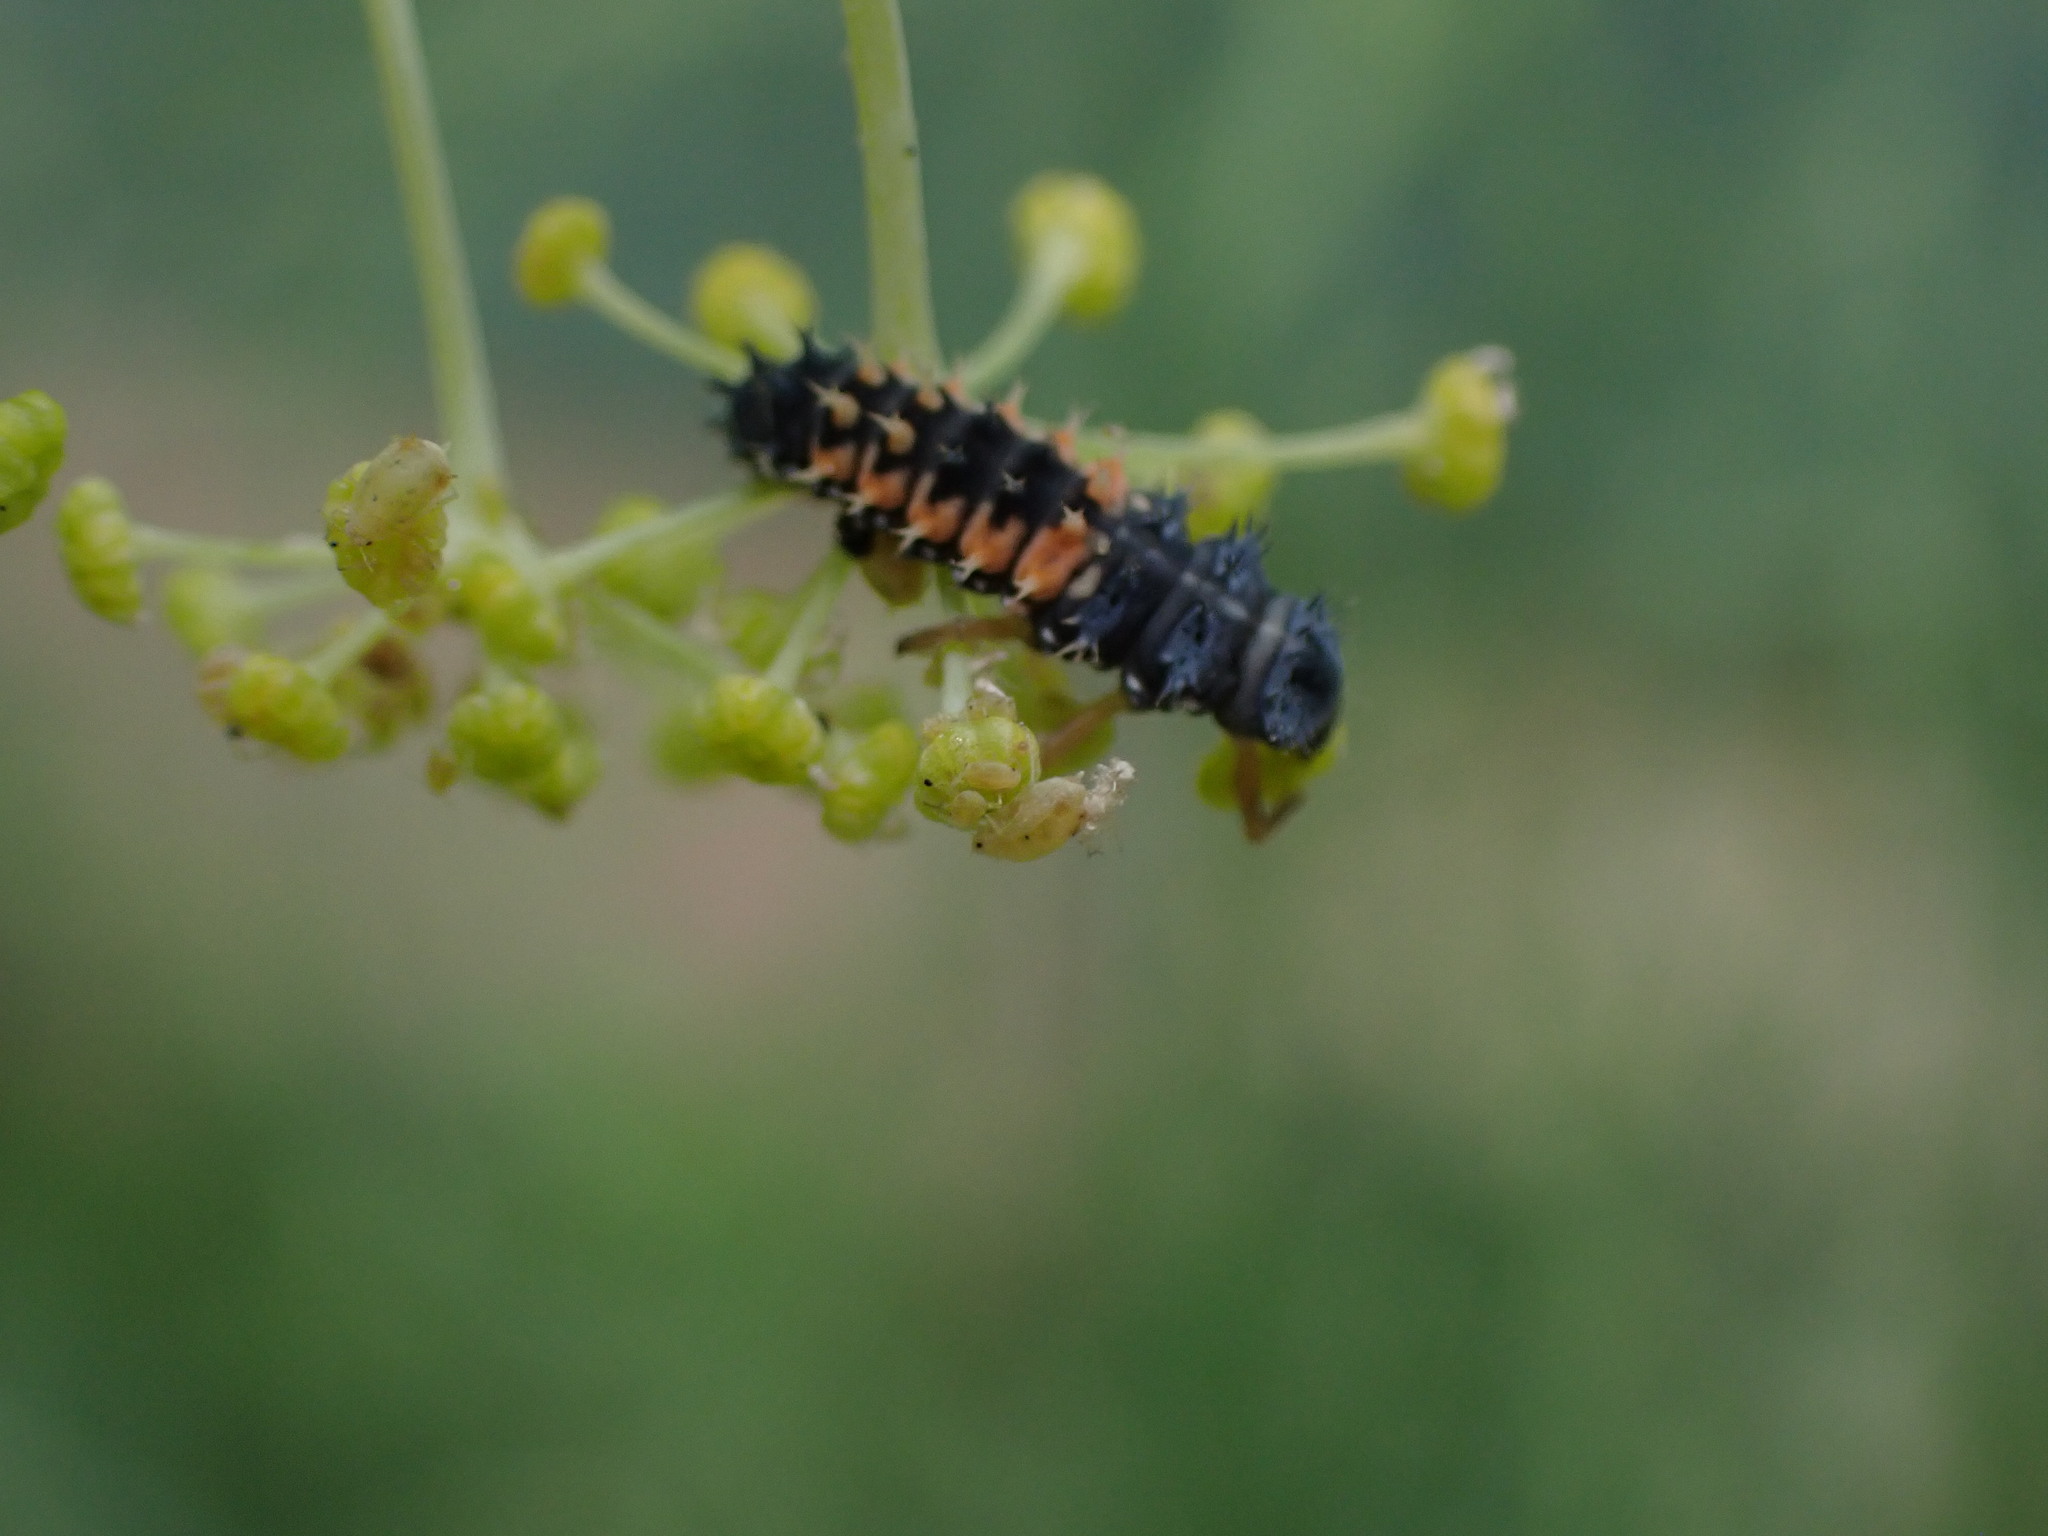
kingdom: Animalia
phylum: Arthropoda
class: Insecta
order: Coleoptera
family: Coccinellidae
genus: Harmonia
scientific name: Harmonia axyridis
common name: Harlequin ladybird
